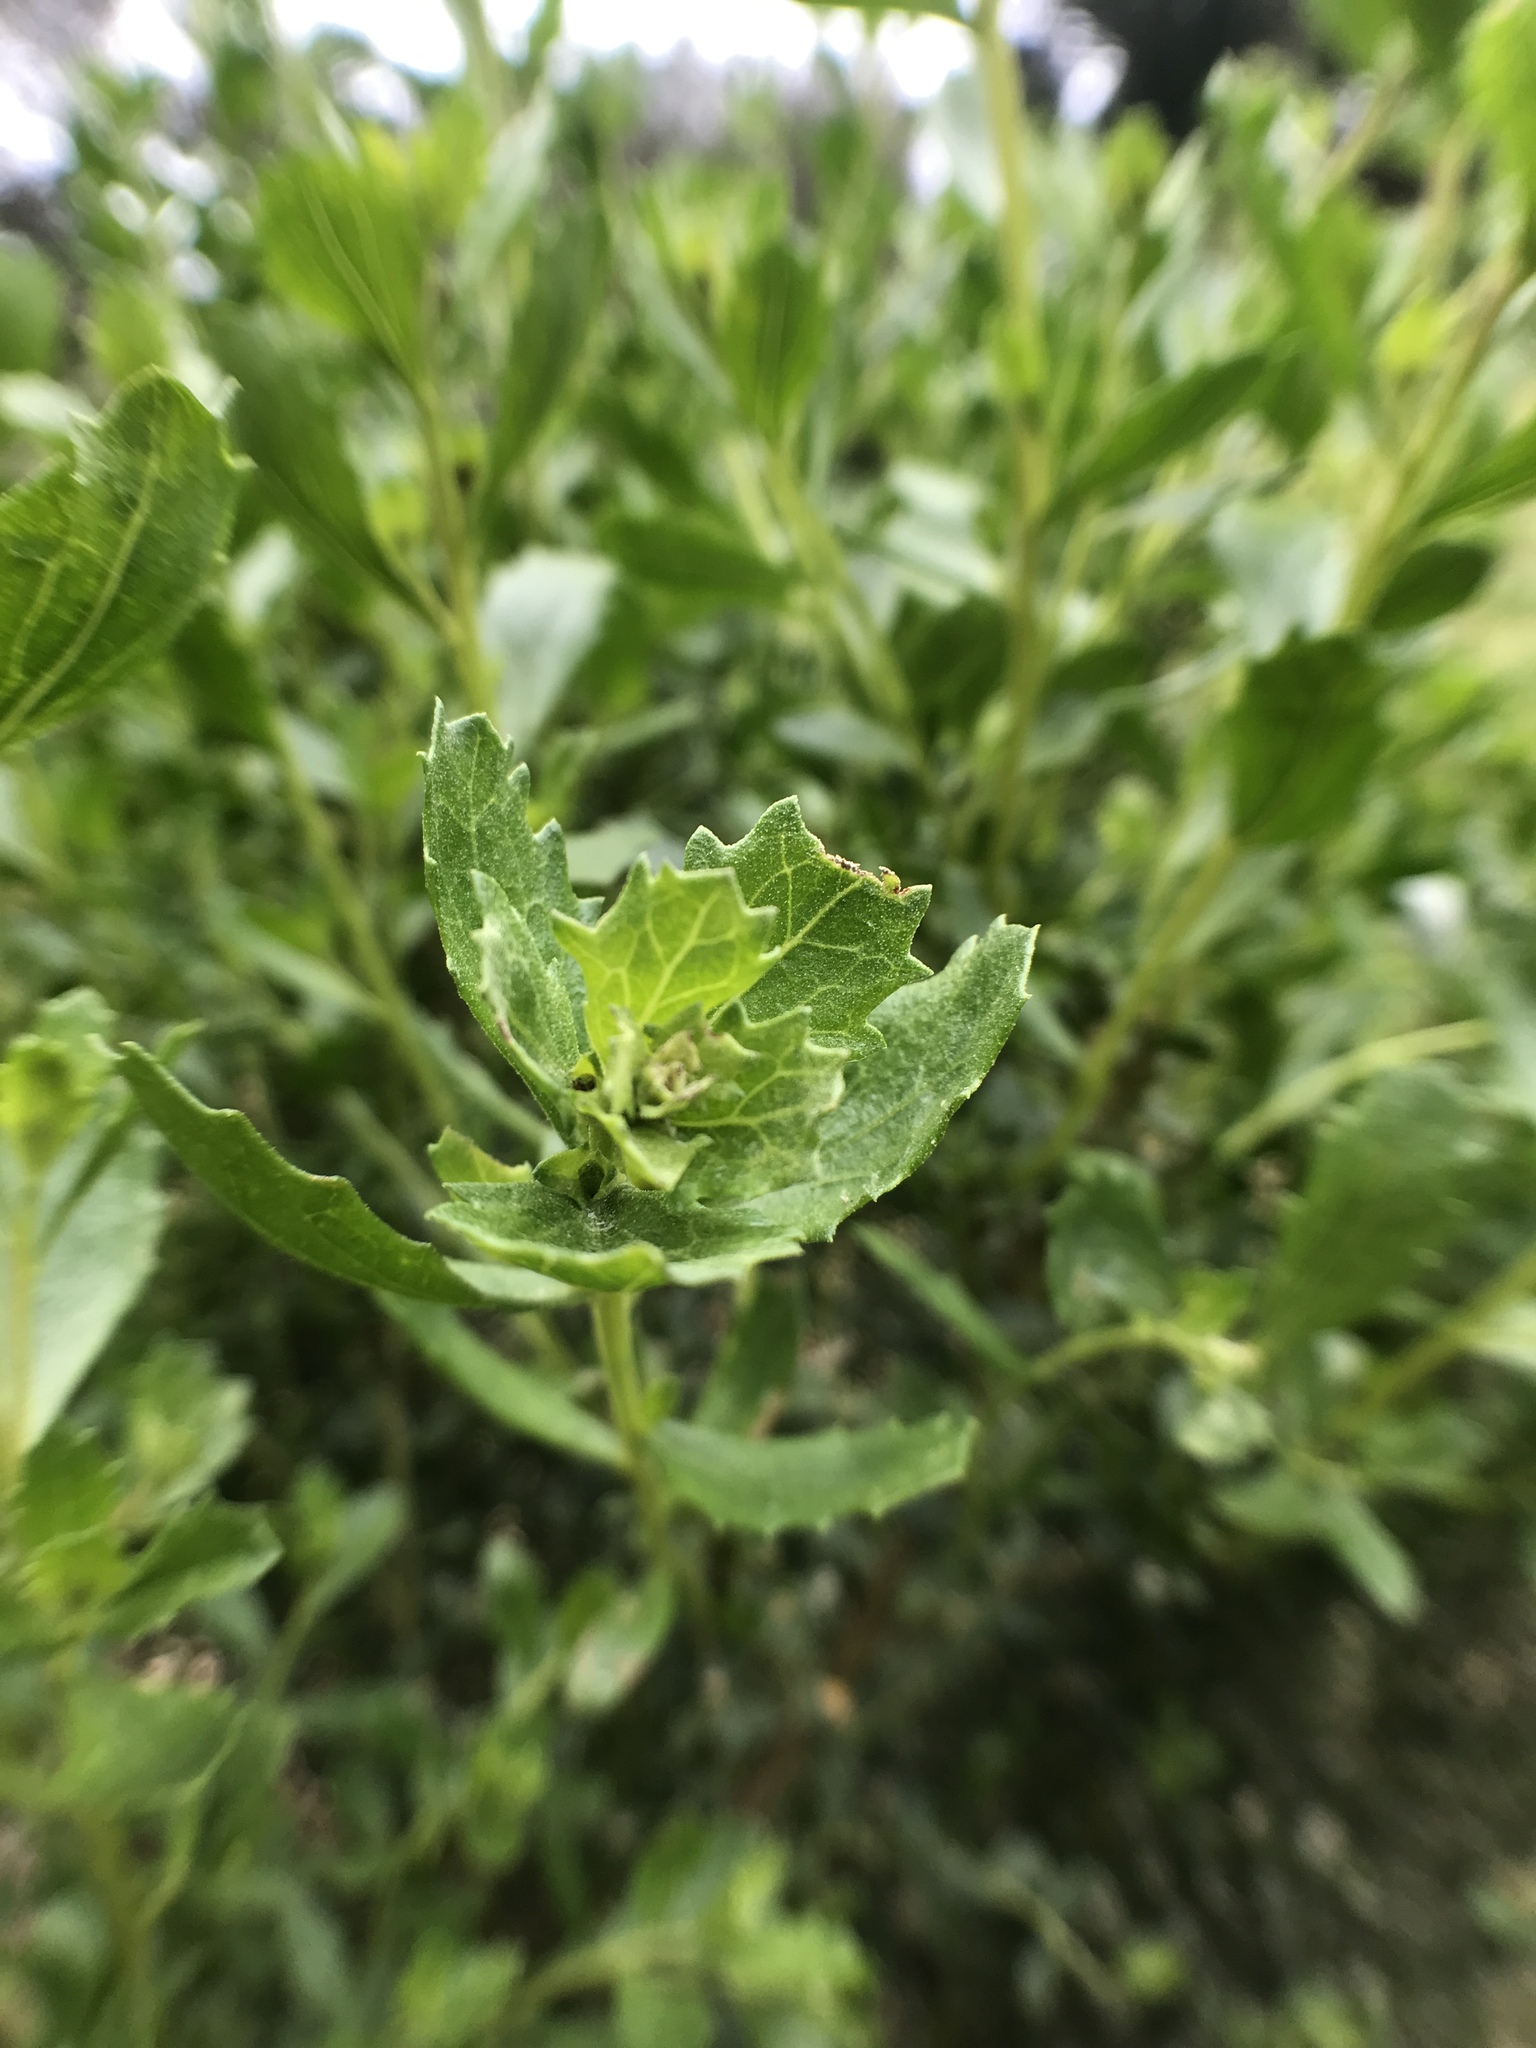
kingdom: Plantae
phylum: Tracheophyta
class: Magnoliopsida
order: Asterales
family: Asteraceae
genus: Baccharis
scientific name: Baccharis pilularis
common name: Coyotebrush
